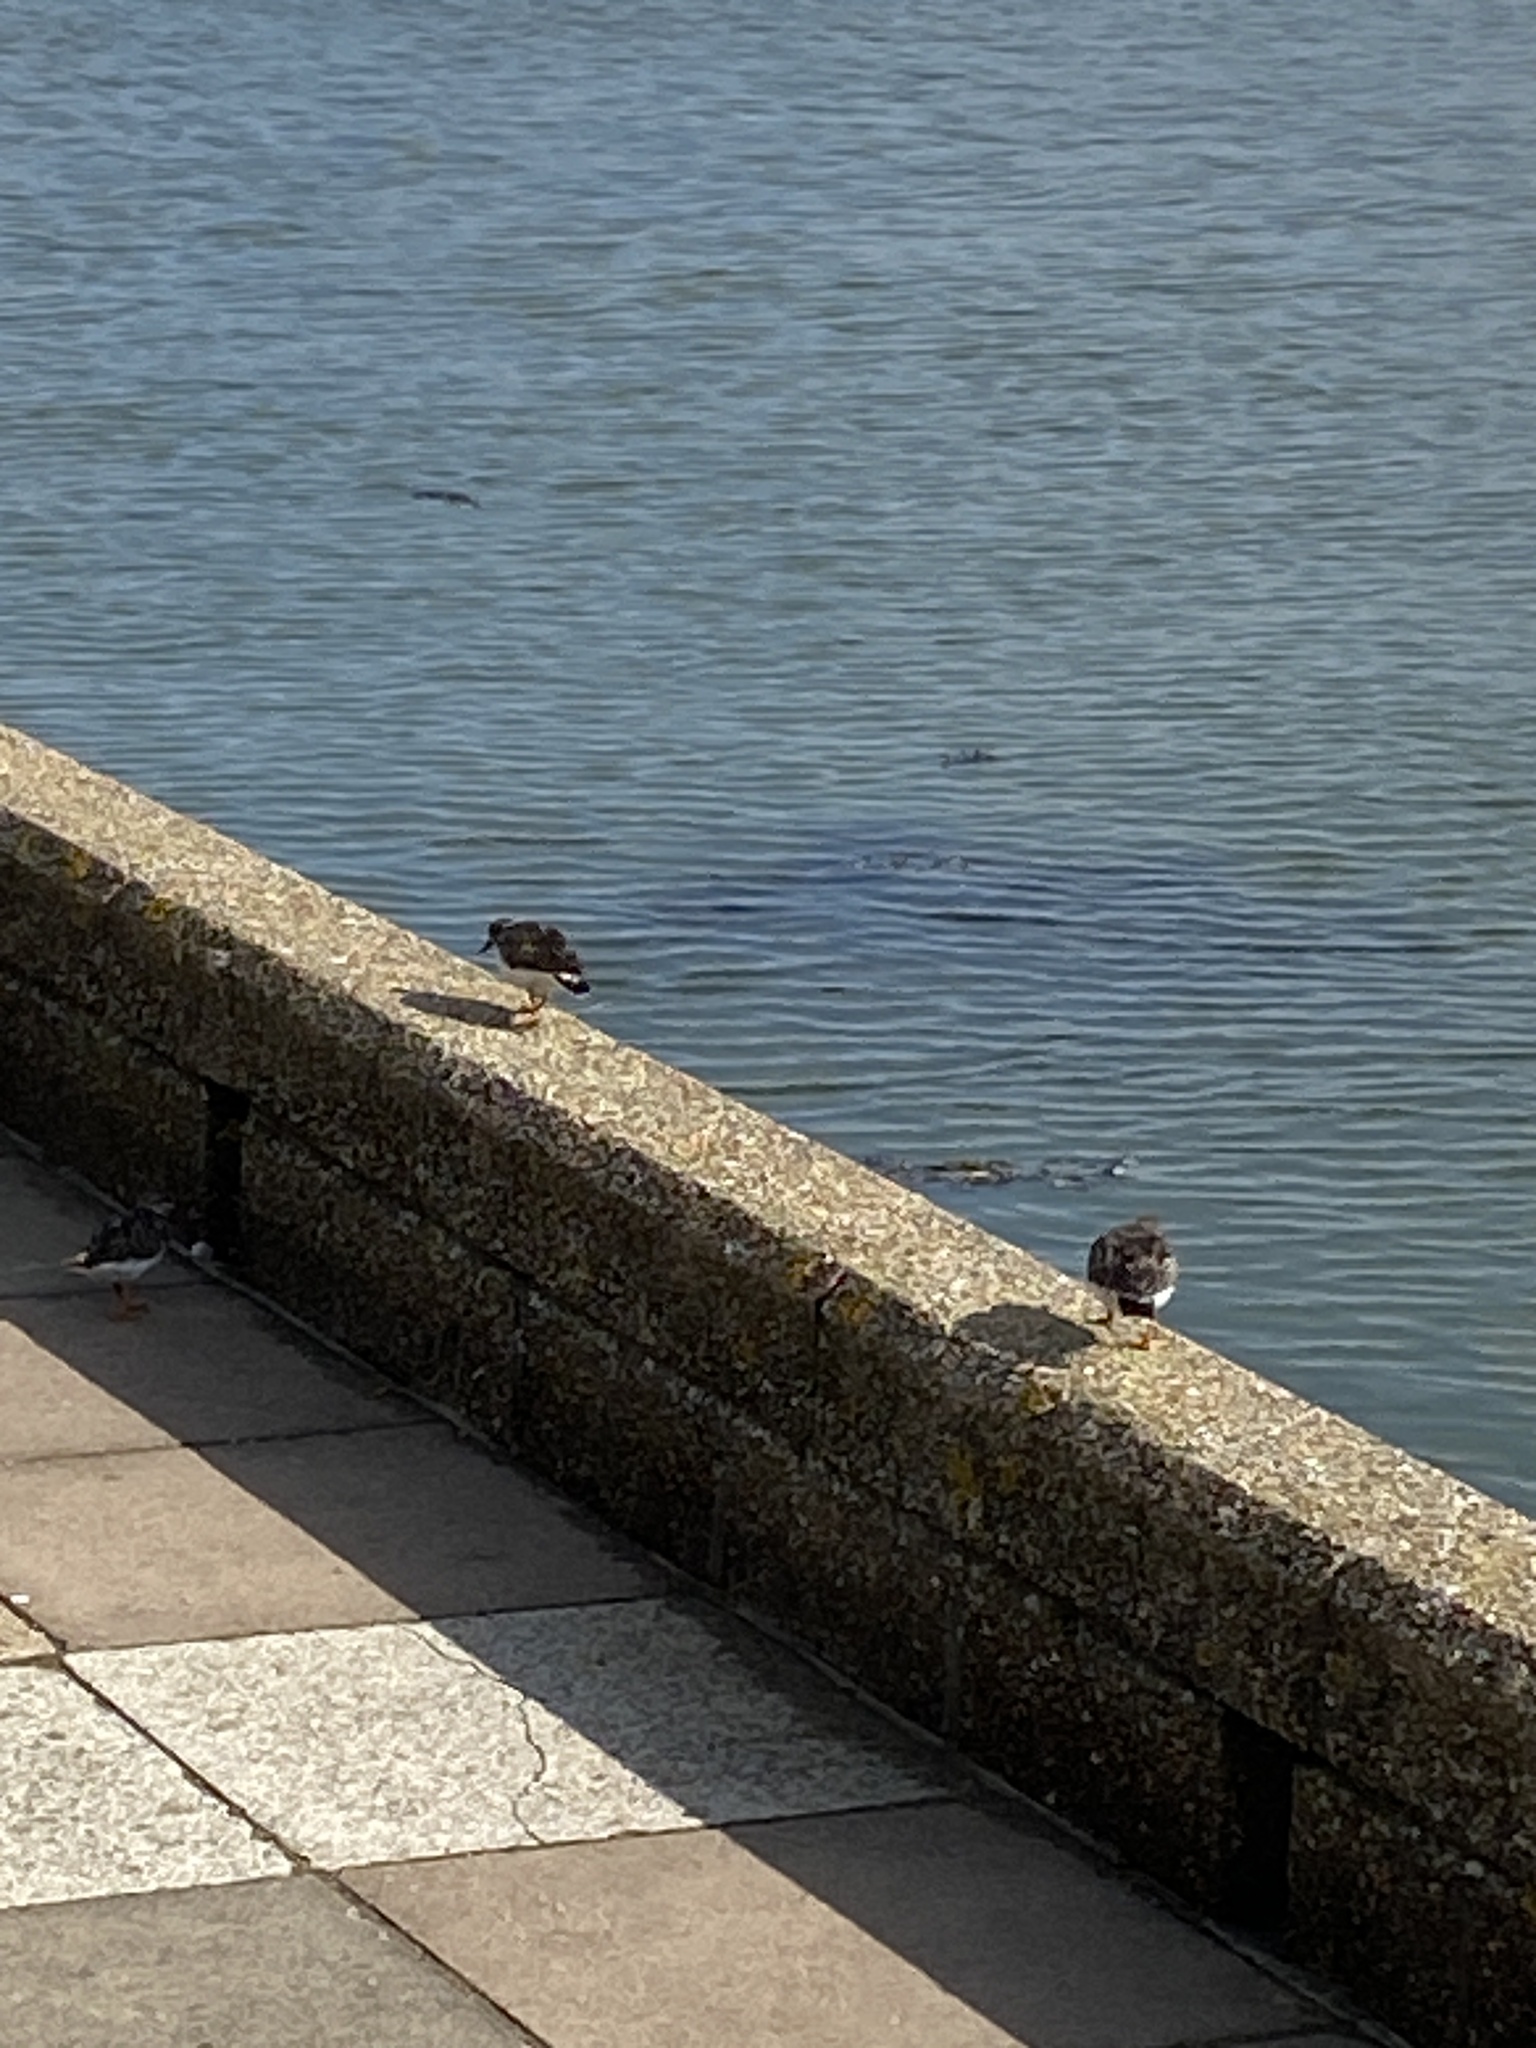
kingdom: Animalia
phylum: Chordata
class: Aves
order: Charadriiformes
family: Scolopacidae
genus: Arenaria
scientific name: Arenaria interpres
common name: Ruddy turnstone
